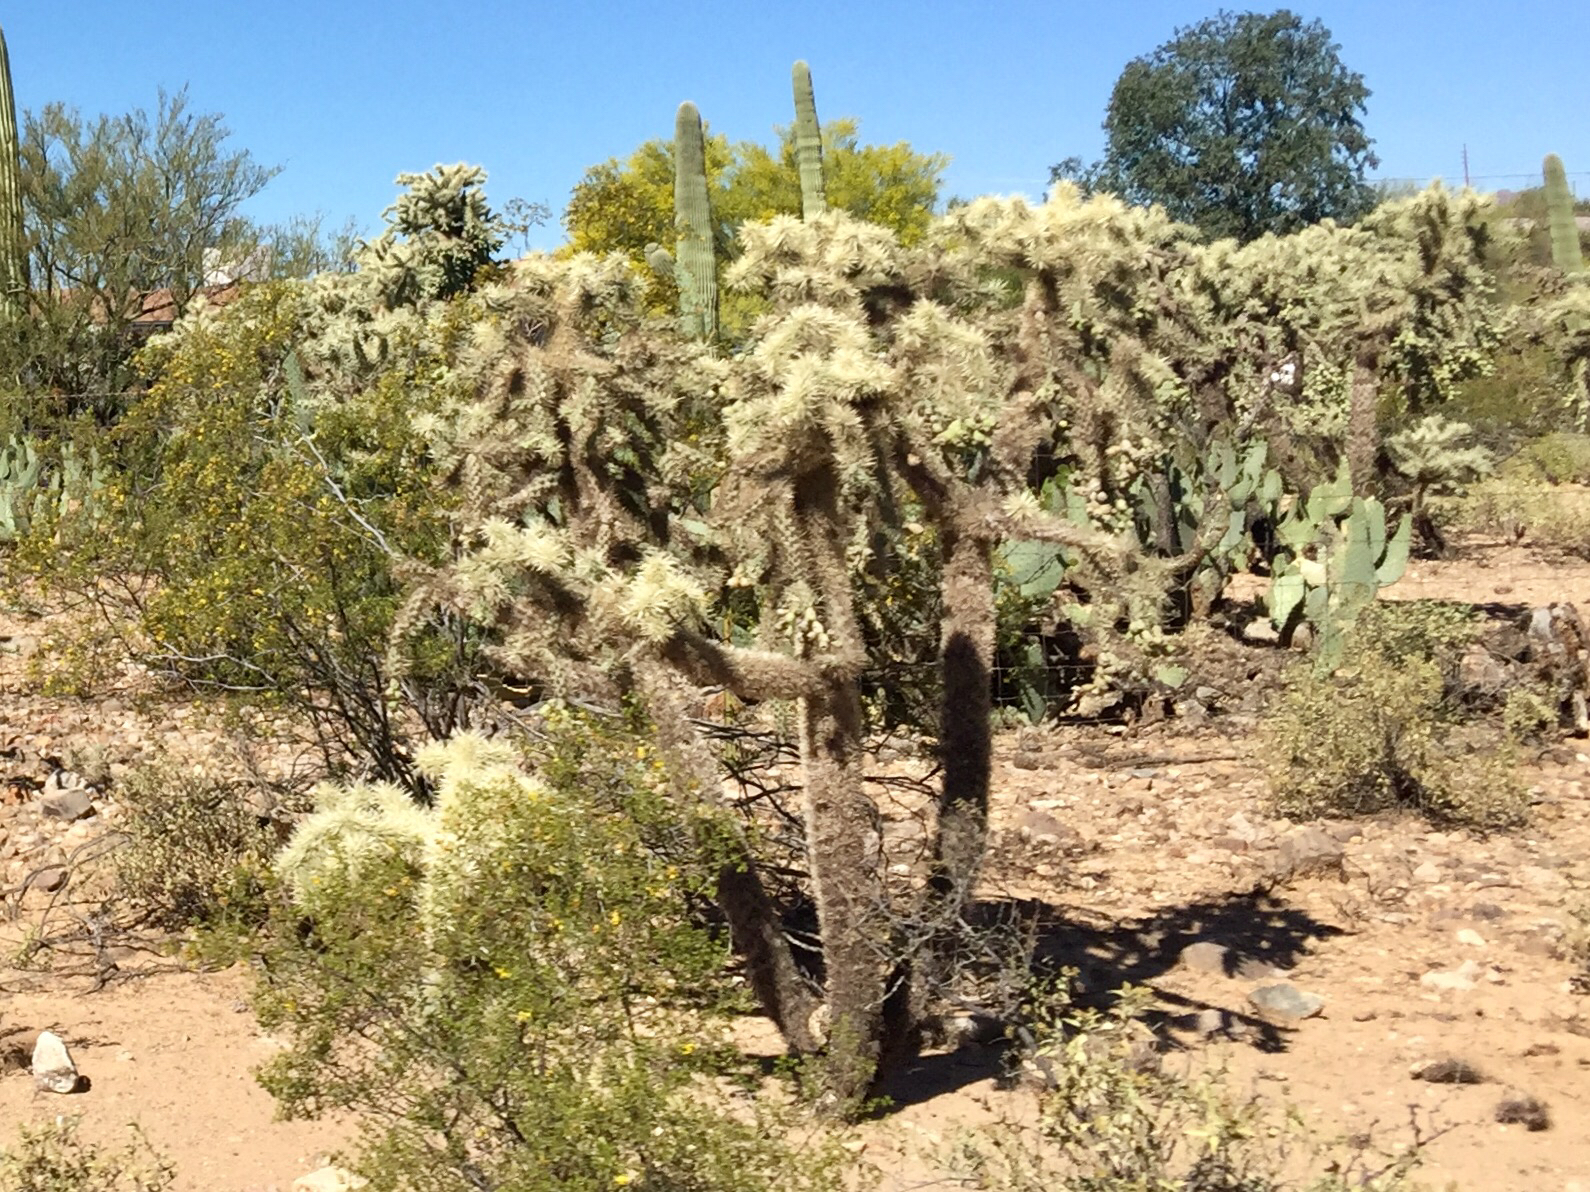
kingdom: Plantae
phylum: Tracheophyta
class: Magnoliopsida
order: Caryophyllales
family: Cactaceae
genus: Cylindropuntia
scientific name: Cylindropuntia fulgida
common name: Jumping cholla
